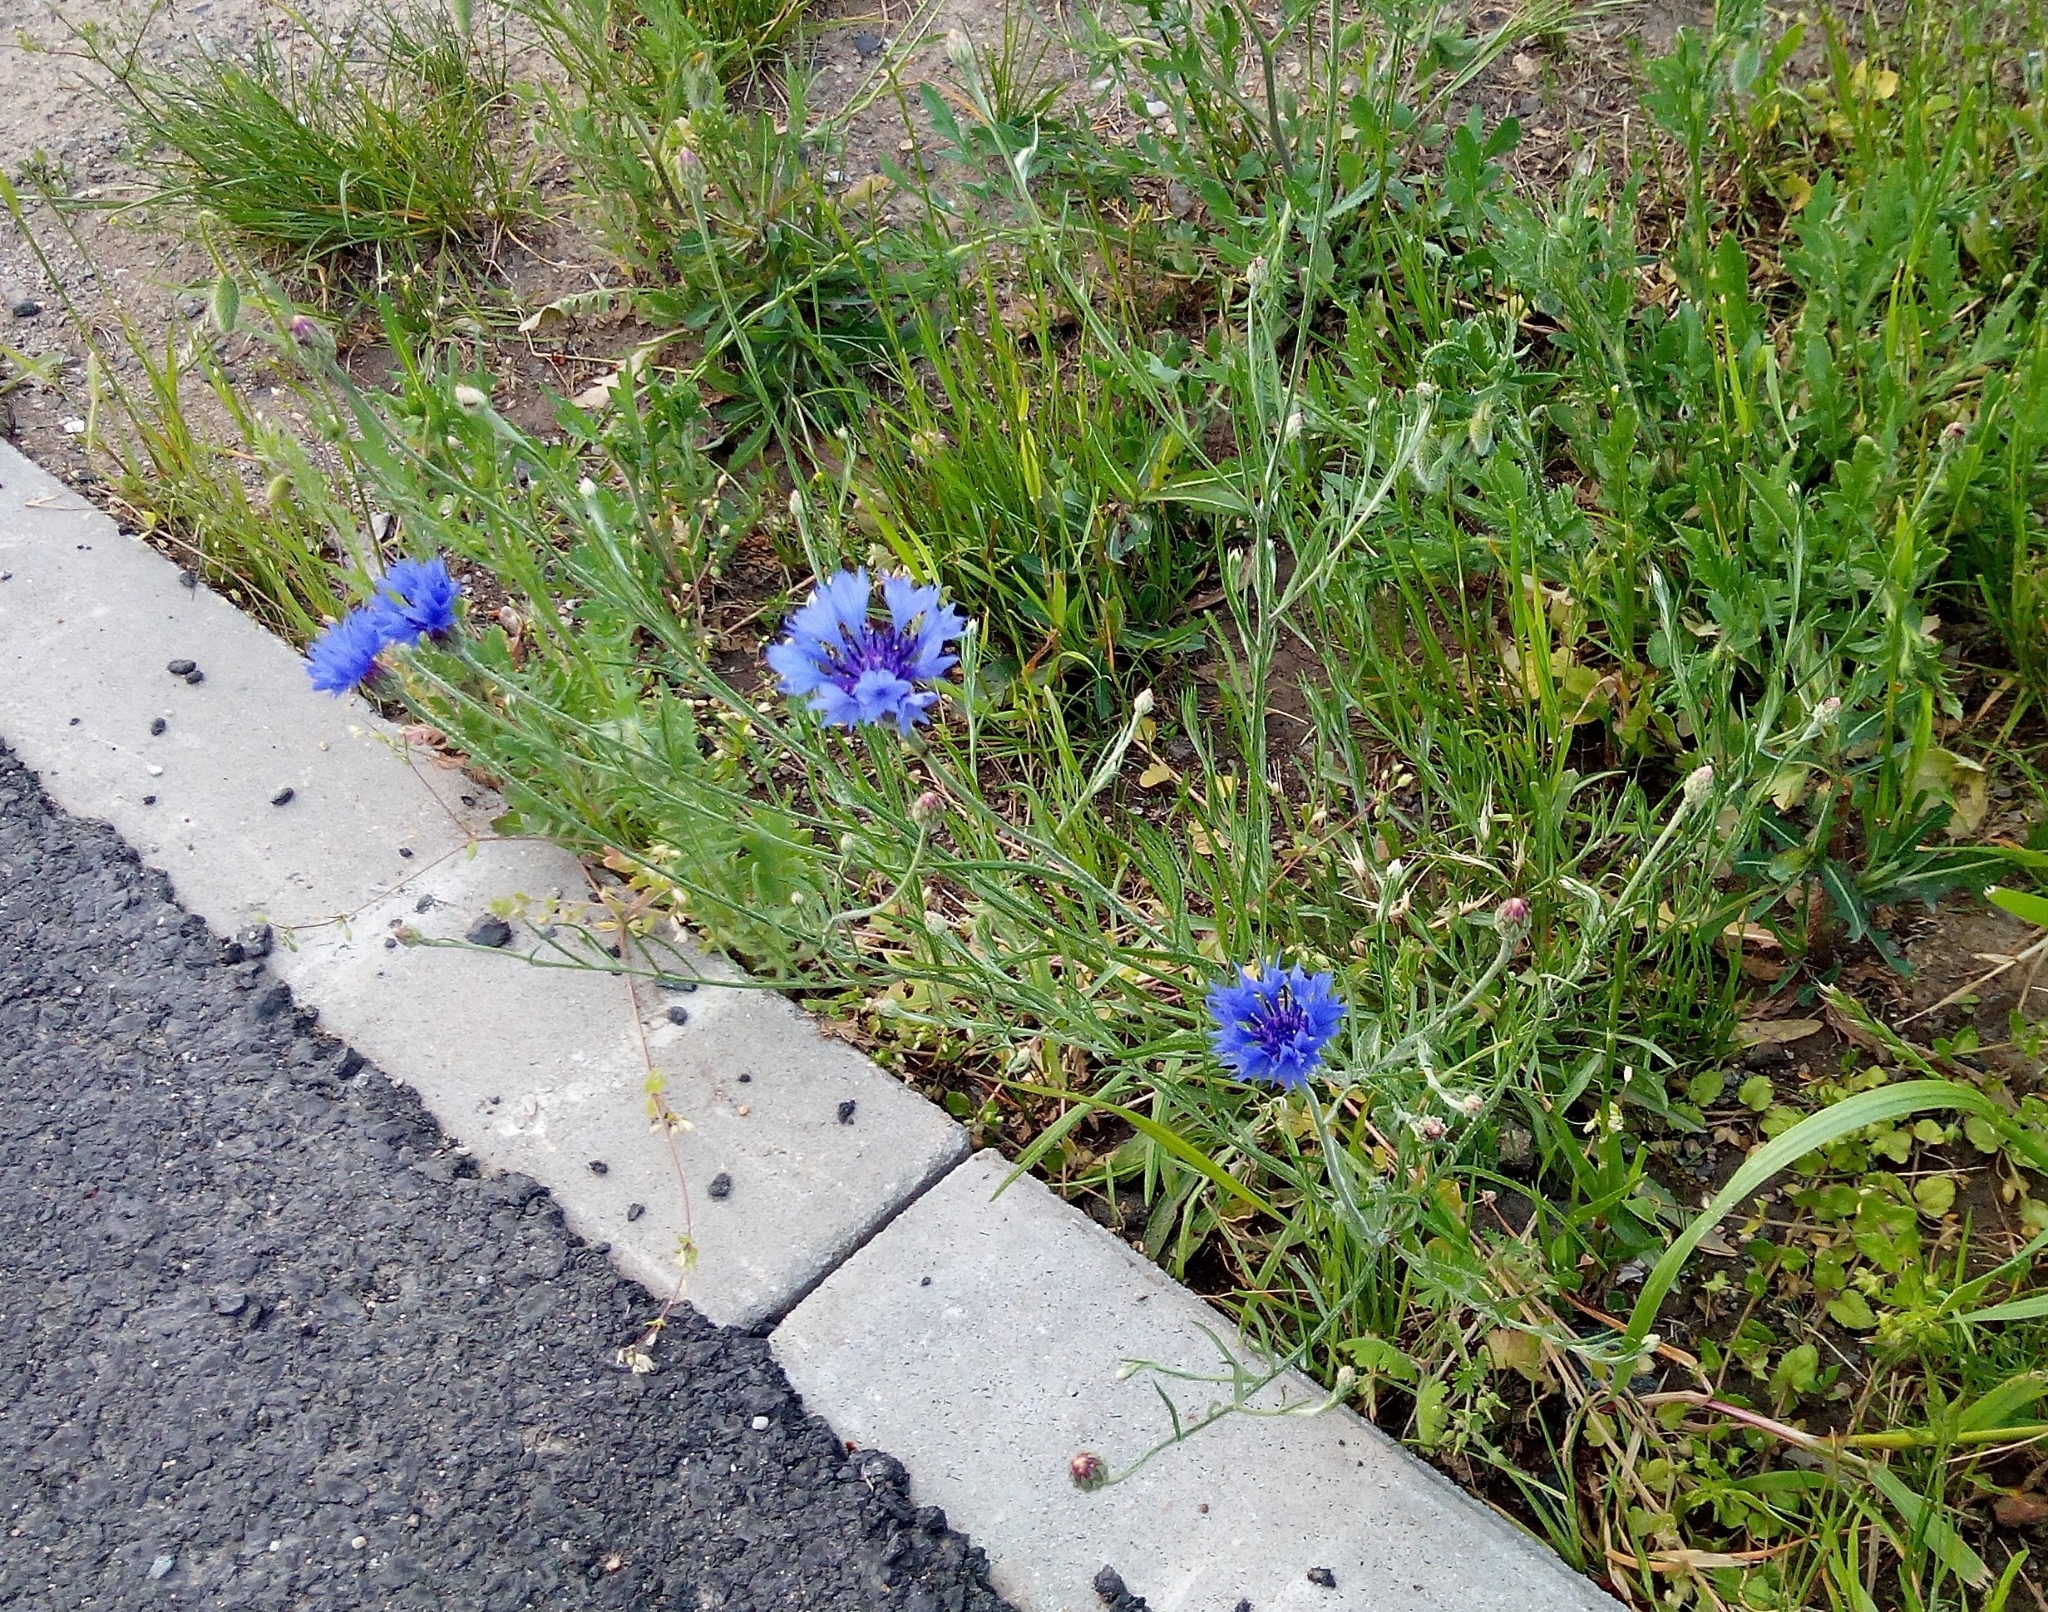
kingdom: Plantae
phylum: Tracheophyta
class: Magnoliopsida
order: Asterales
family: Asteraceae
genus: Centaurea
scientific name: Centaurea cyanus
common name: Cornflower
